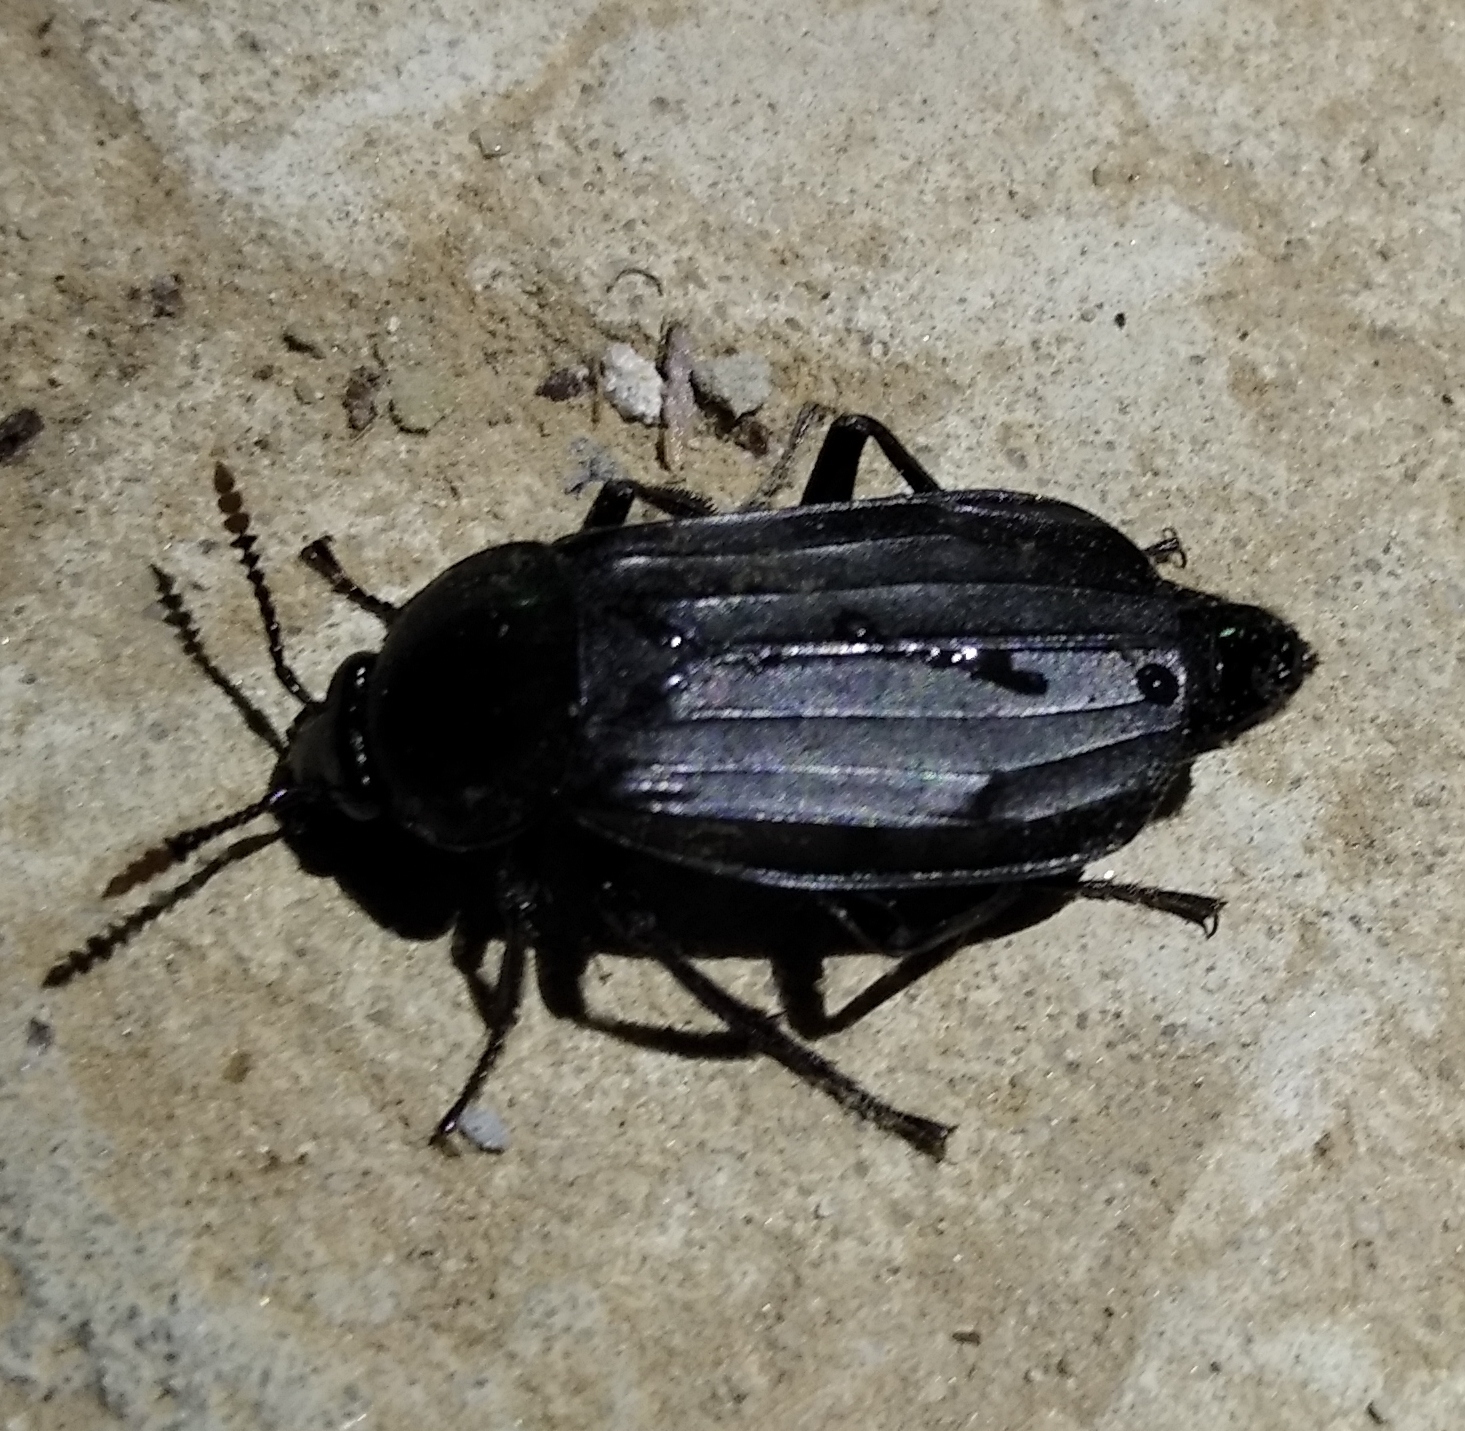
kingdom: Animalia
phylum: Arthropoda
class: Insecta
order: Coleoptera
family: Staphylinidae
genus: Necrodes
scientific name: Necrodes littoralis
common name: Shore sexton beetle
